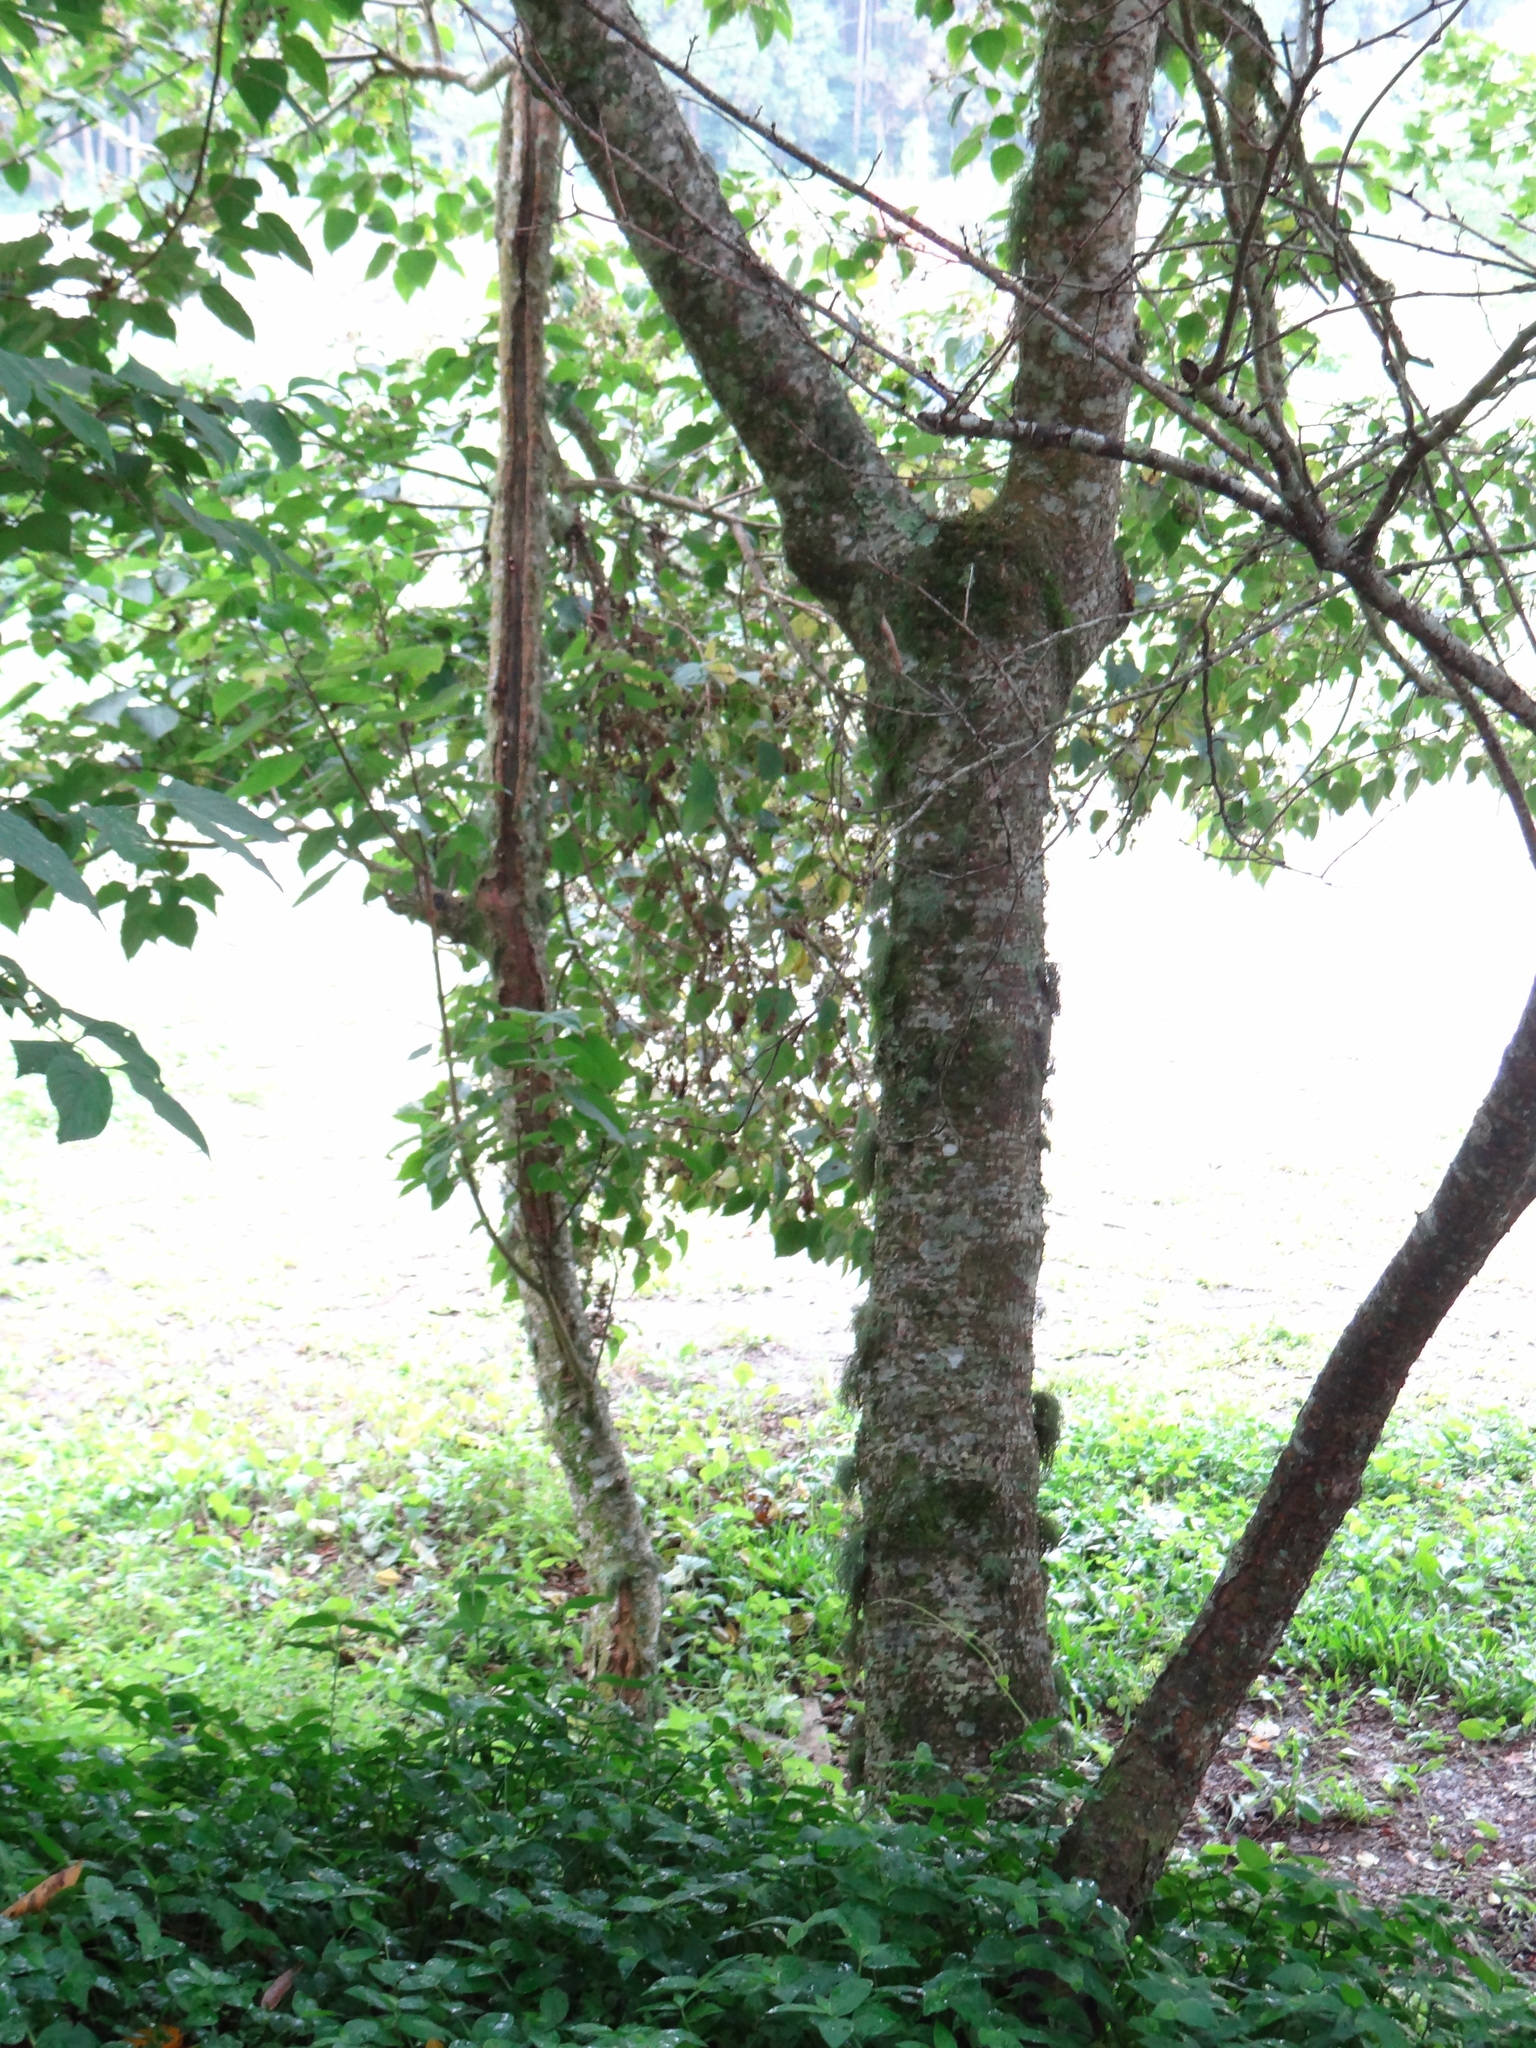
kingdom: Plantae
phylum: Tracheophyta
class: Magnoliopsida
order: Lamiales
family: Lamiaceae
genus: Clerodendrum
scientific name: Clerodendrum trichotomum
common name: Harlequin glorybower
